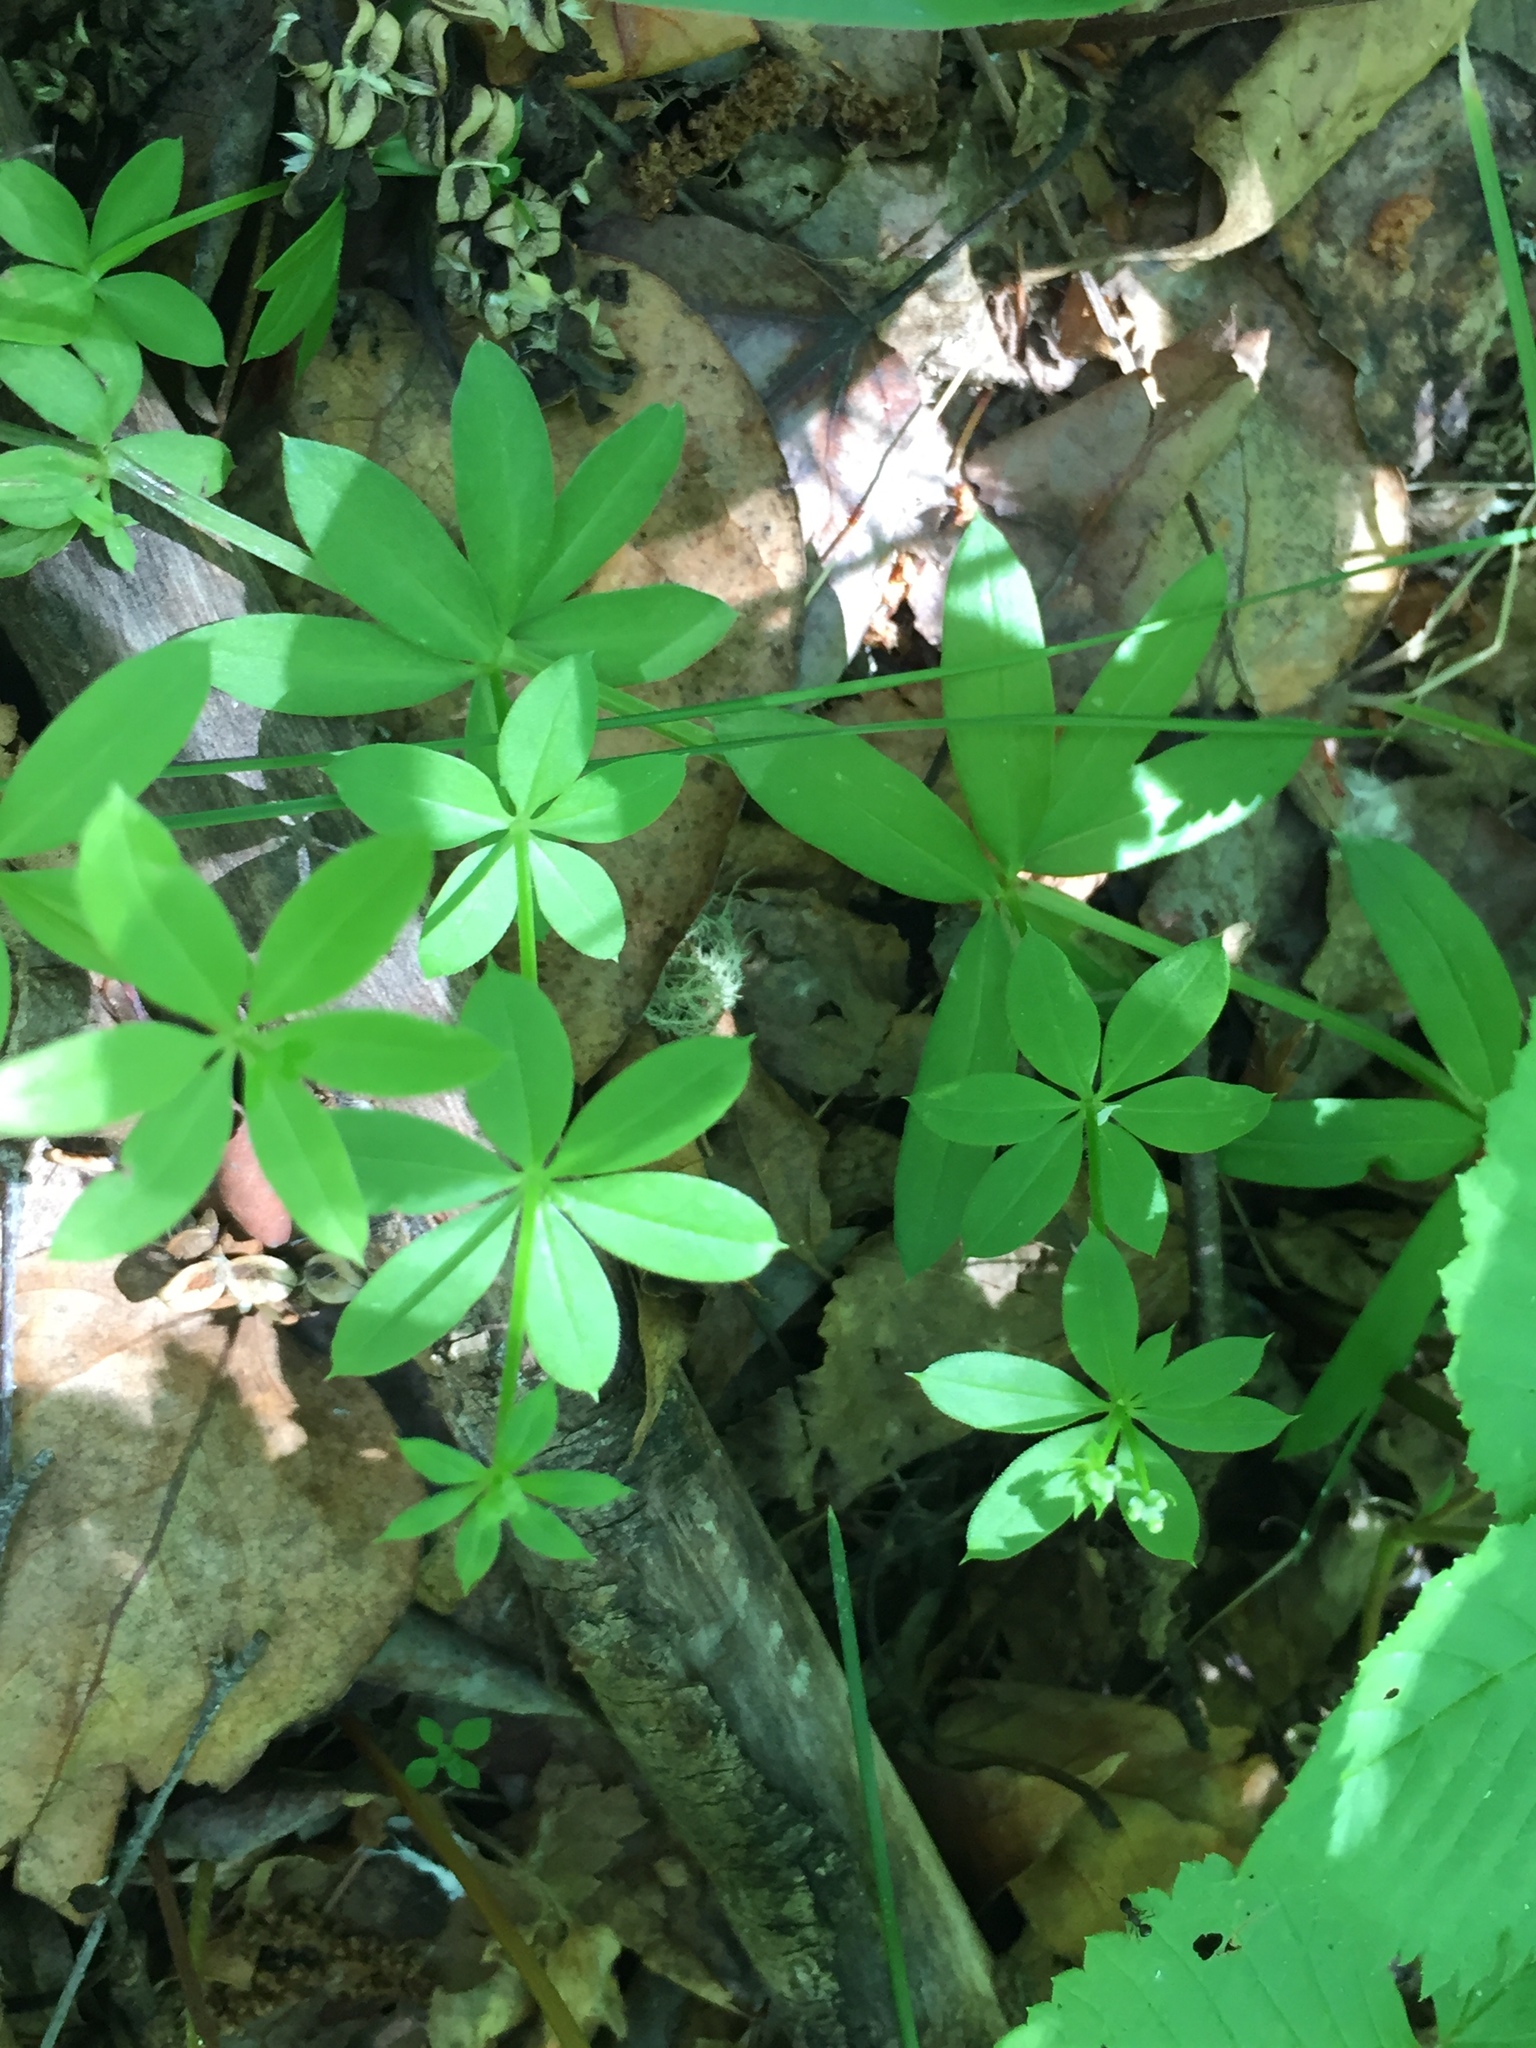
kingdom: Plantae
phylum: Tracheophyta
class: Magnoliopsida
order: Gentianales
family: Rubiaceae
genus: Galium
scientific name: Galium triflorum
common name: Fragrant bedstraw
